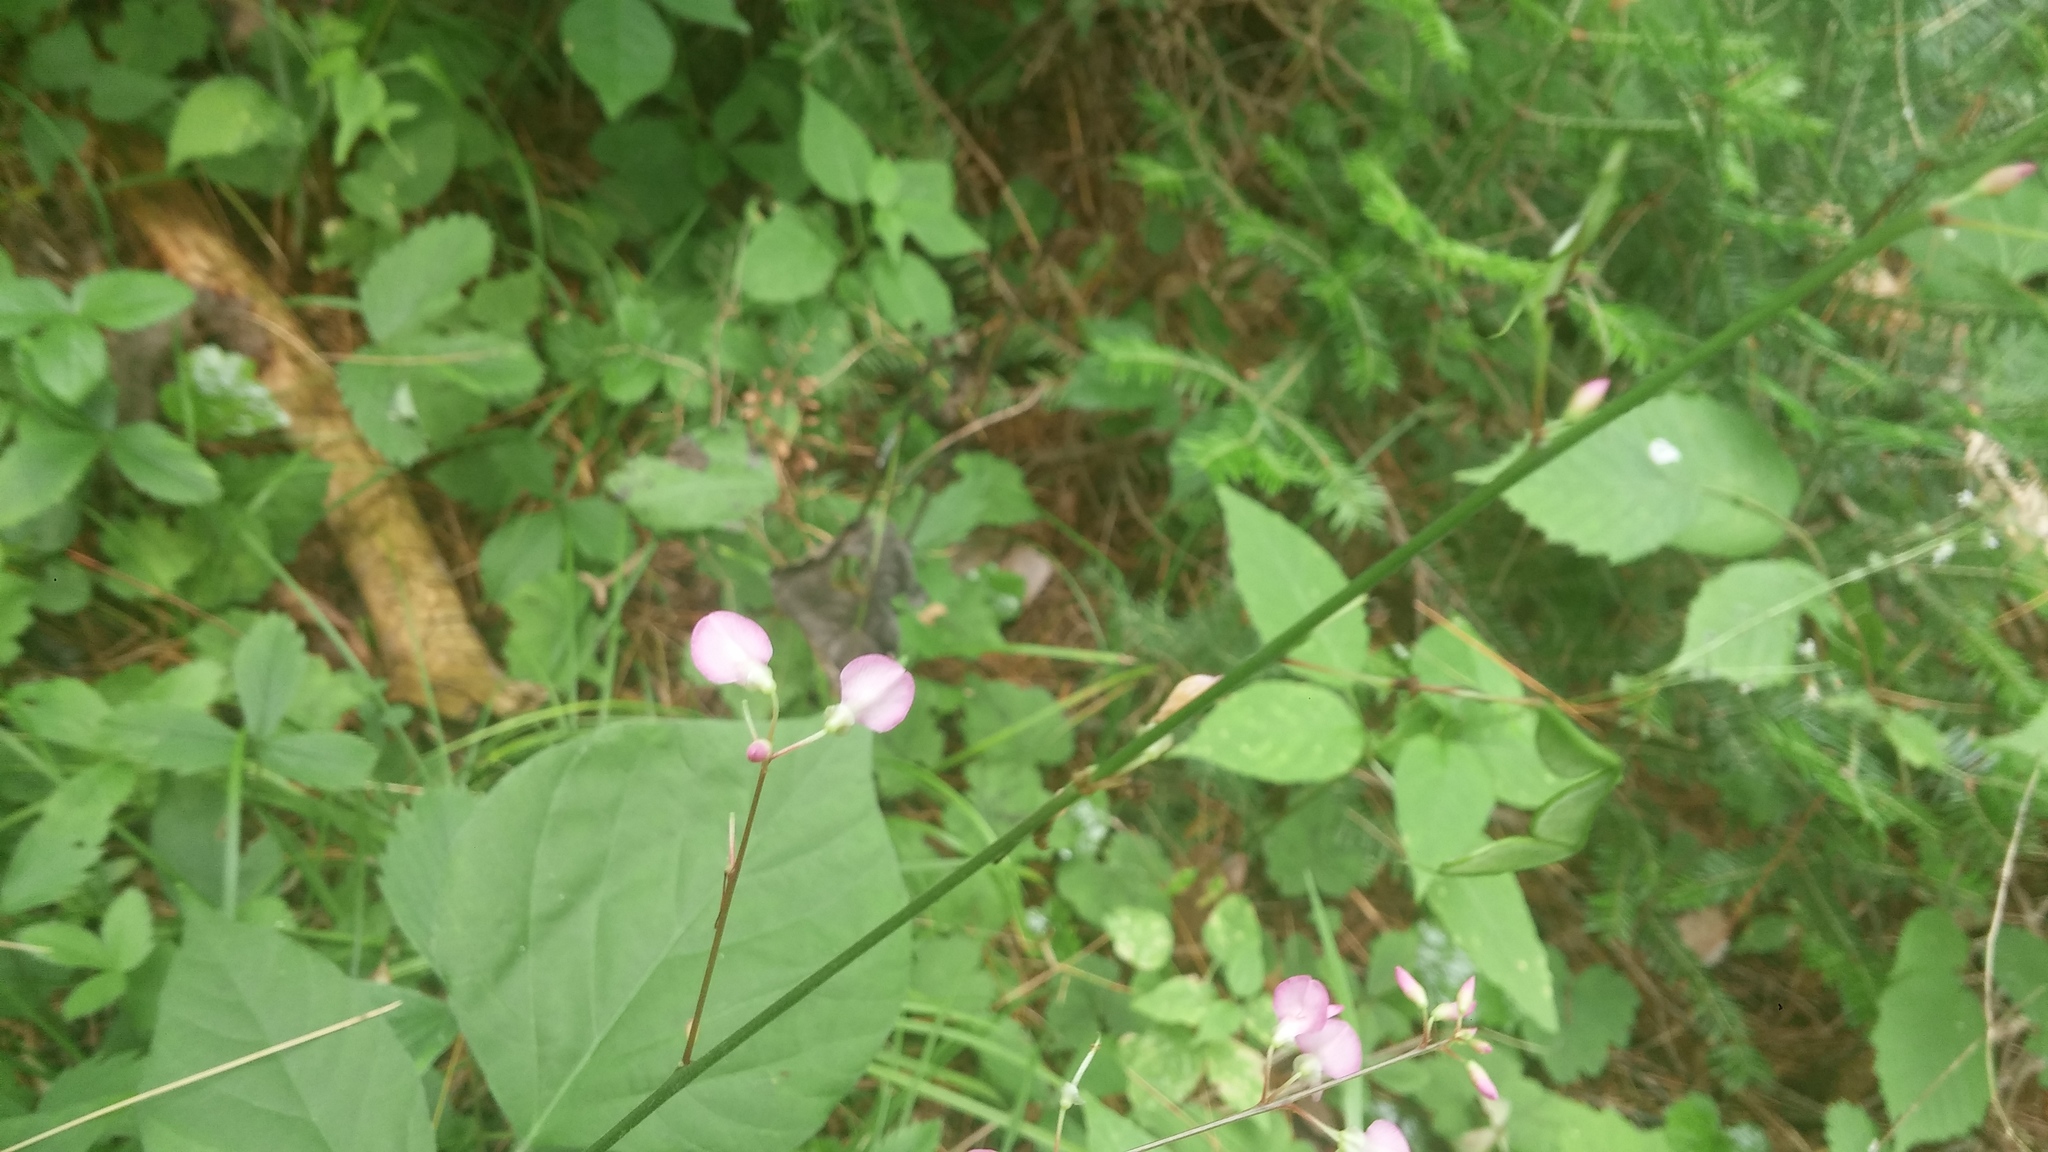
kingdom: Plantae
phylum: Tracheophyta
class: Magnoliopsida
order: Fabales
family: Fabaceae
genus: Hylodesmum
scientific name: Hylodesmum glutinosum
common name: Clustered-leaved tick-trefoil
